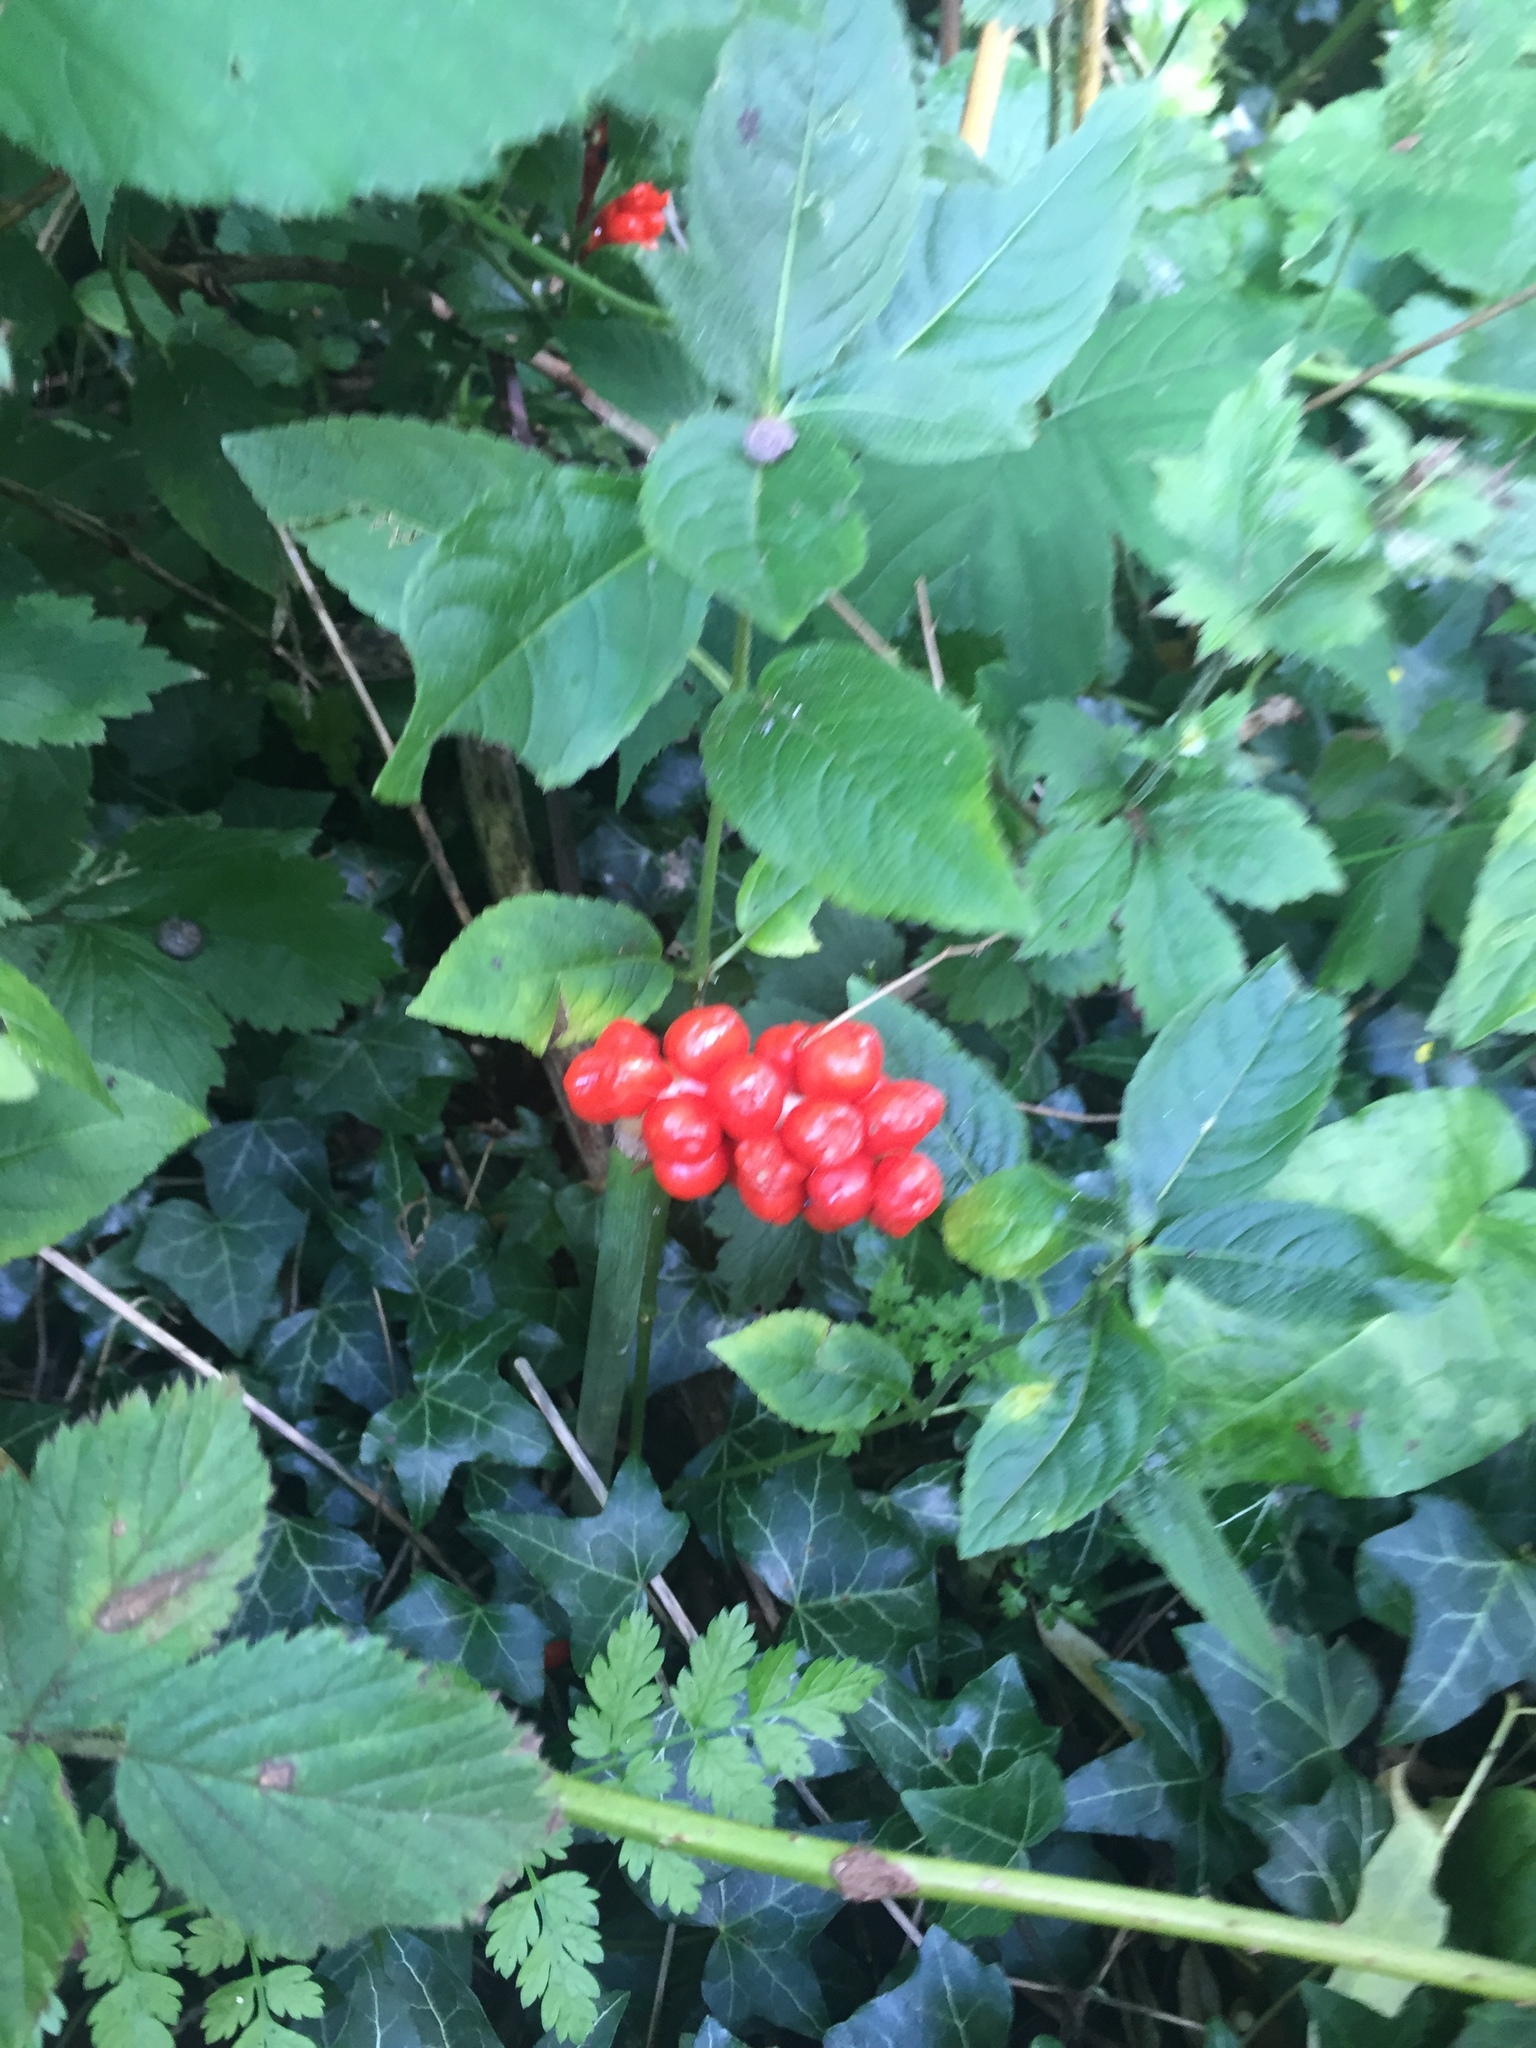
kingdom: Plantae
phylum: Tracheophyta
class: Liliopsida
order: Alismatales
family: Araceae
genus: Arum
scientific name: Arum maculatum
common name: Lords-and-ladies
